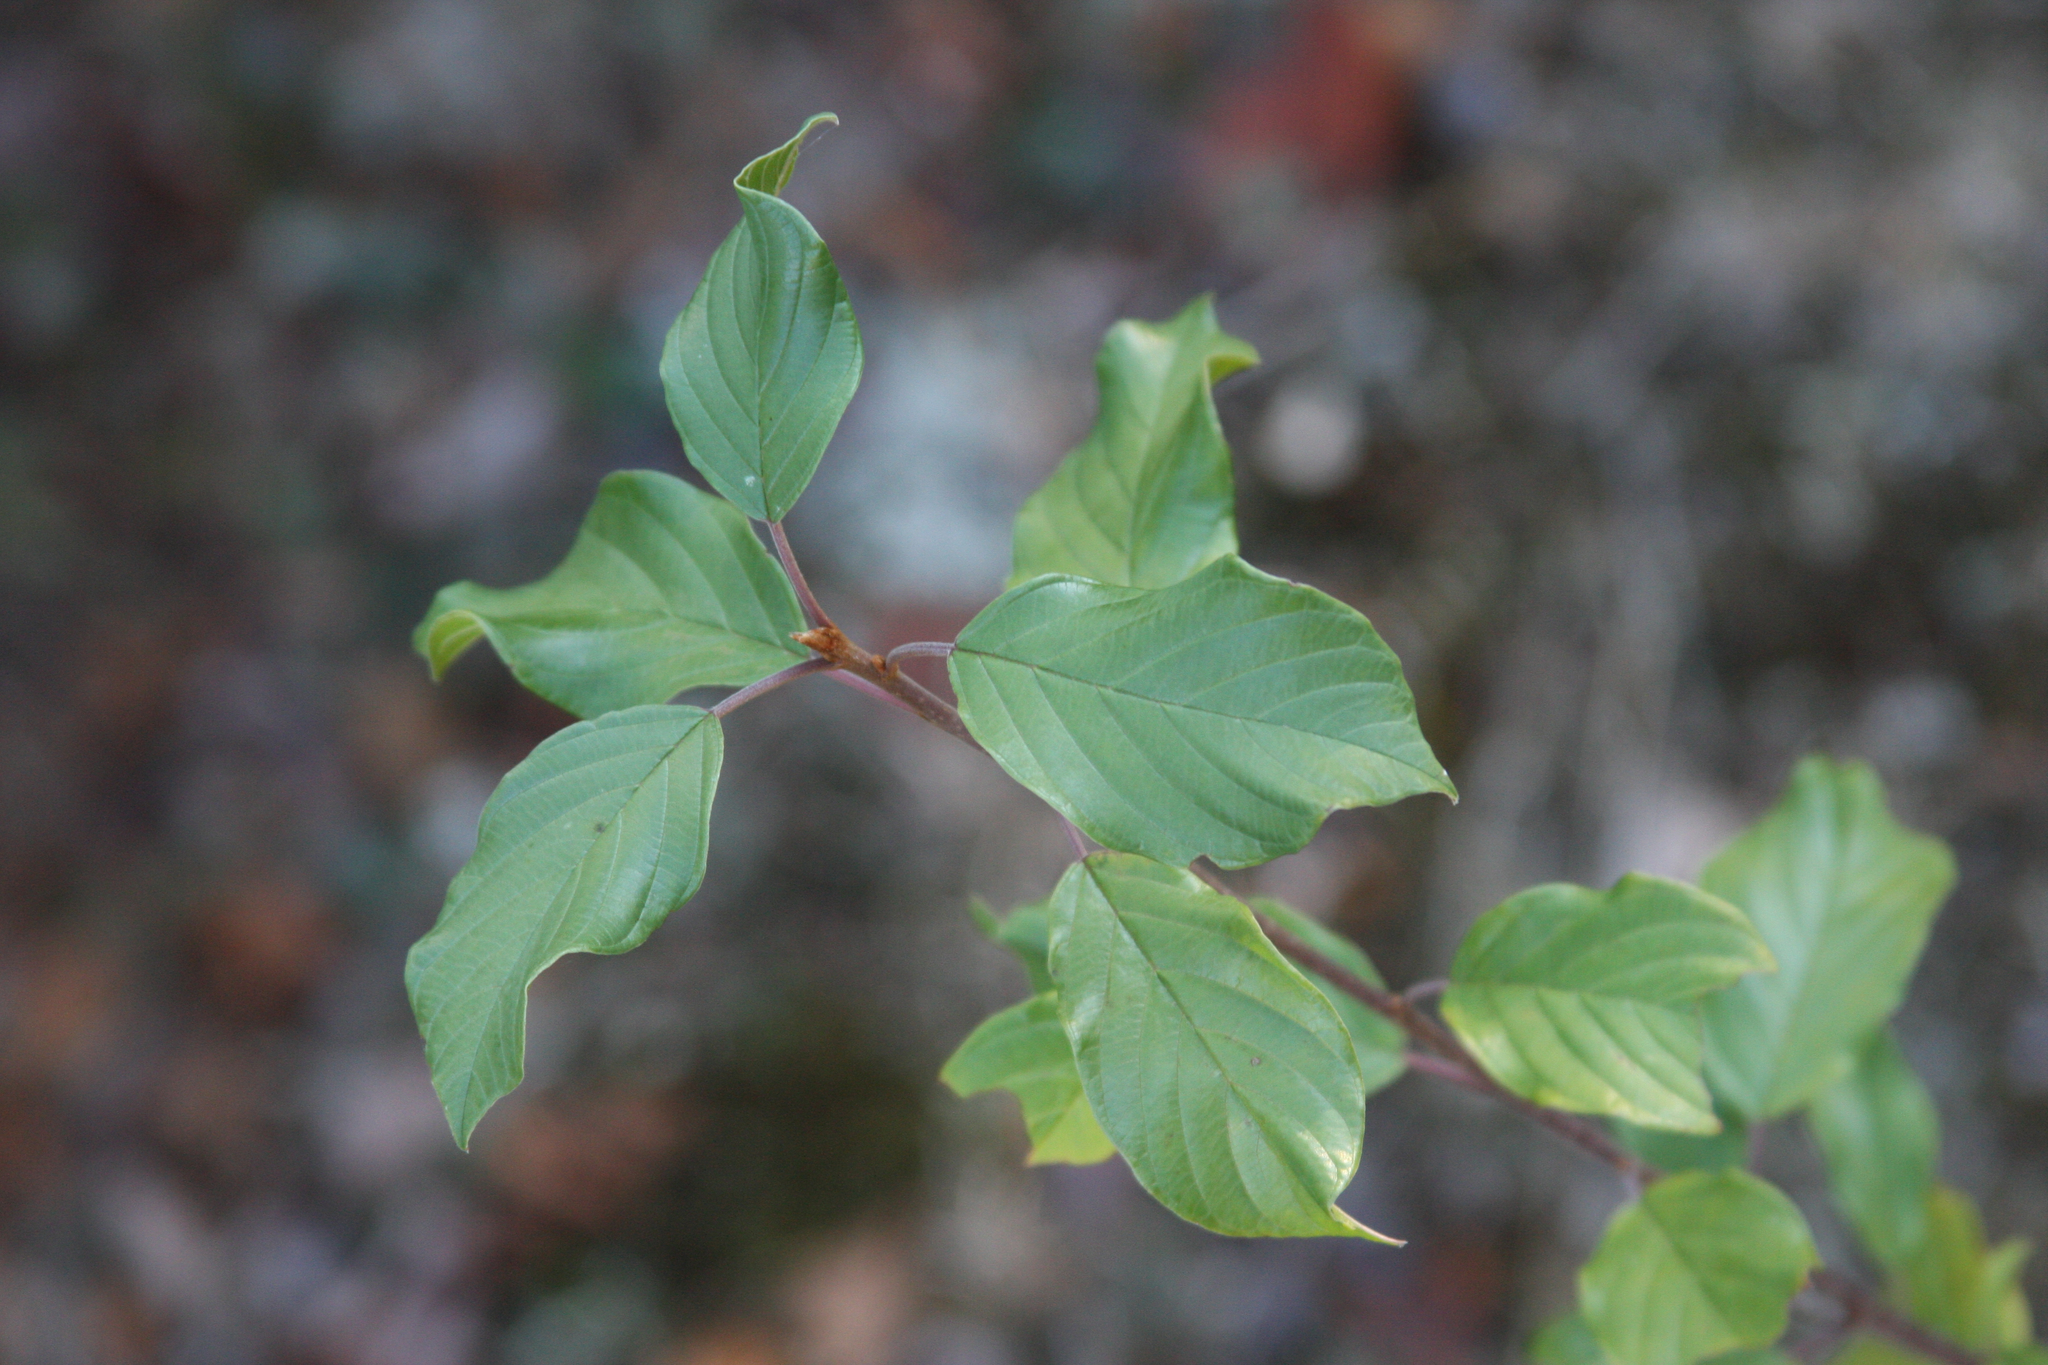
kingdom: Plantae
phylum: Tracheophyta
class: Magnoliopsida
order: Rosales
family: Rhamnaceae
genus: Frangula
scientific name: Frangula alnus
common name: Alder buckthorn
